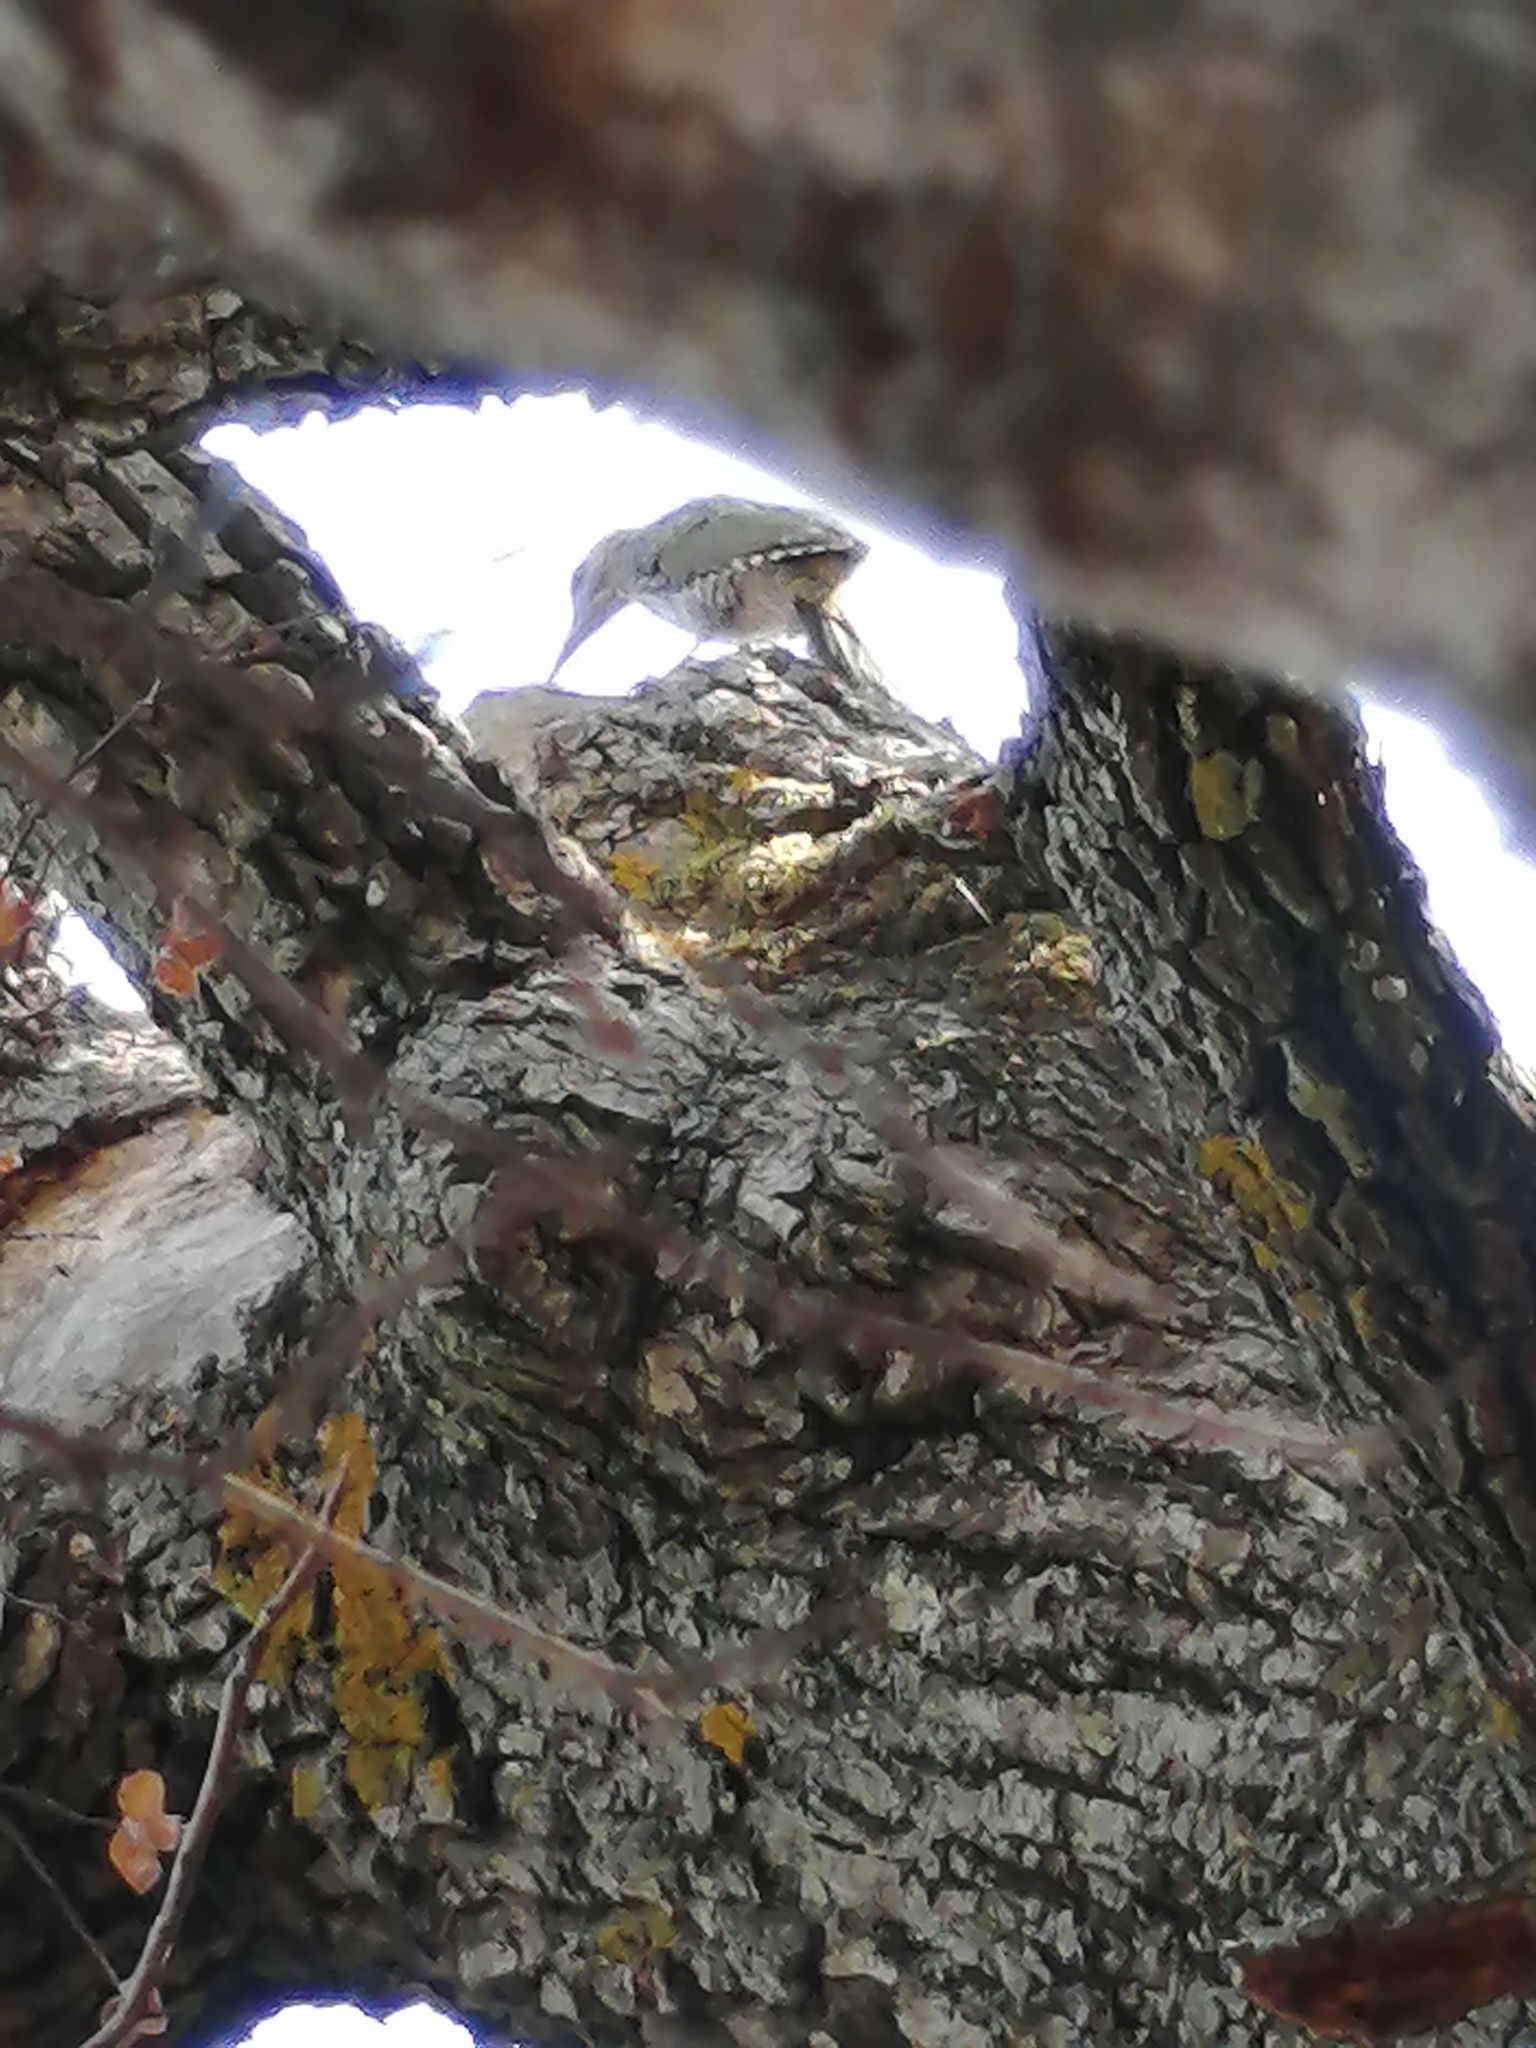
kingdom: Animalia
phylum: Chordata
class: Aves
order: Piciformes
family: Picidae
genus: Picus
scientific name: Picus viridis
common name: European green woodpecker
